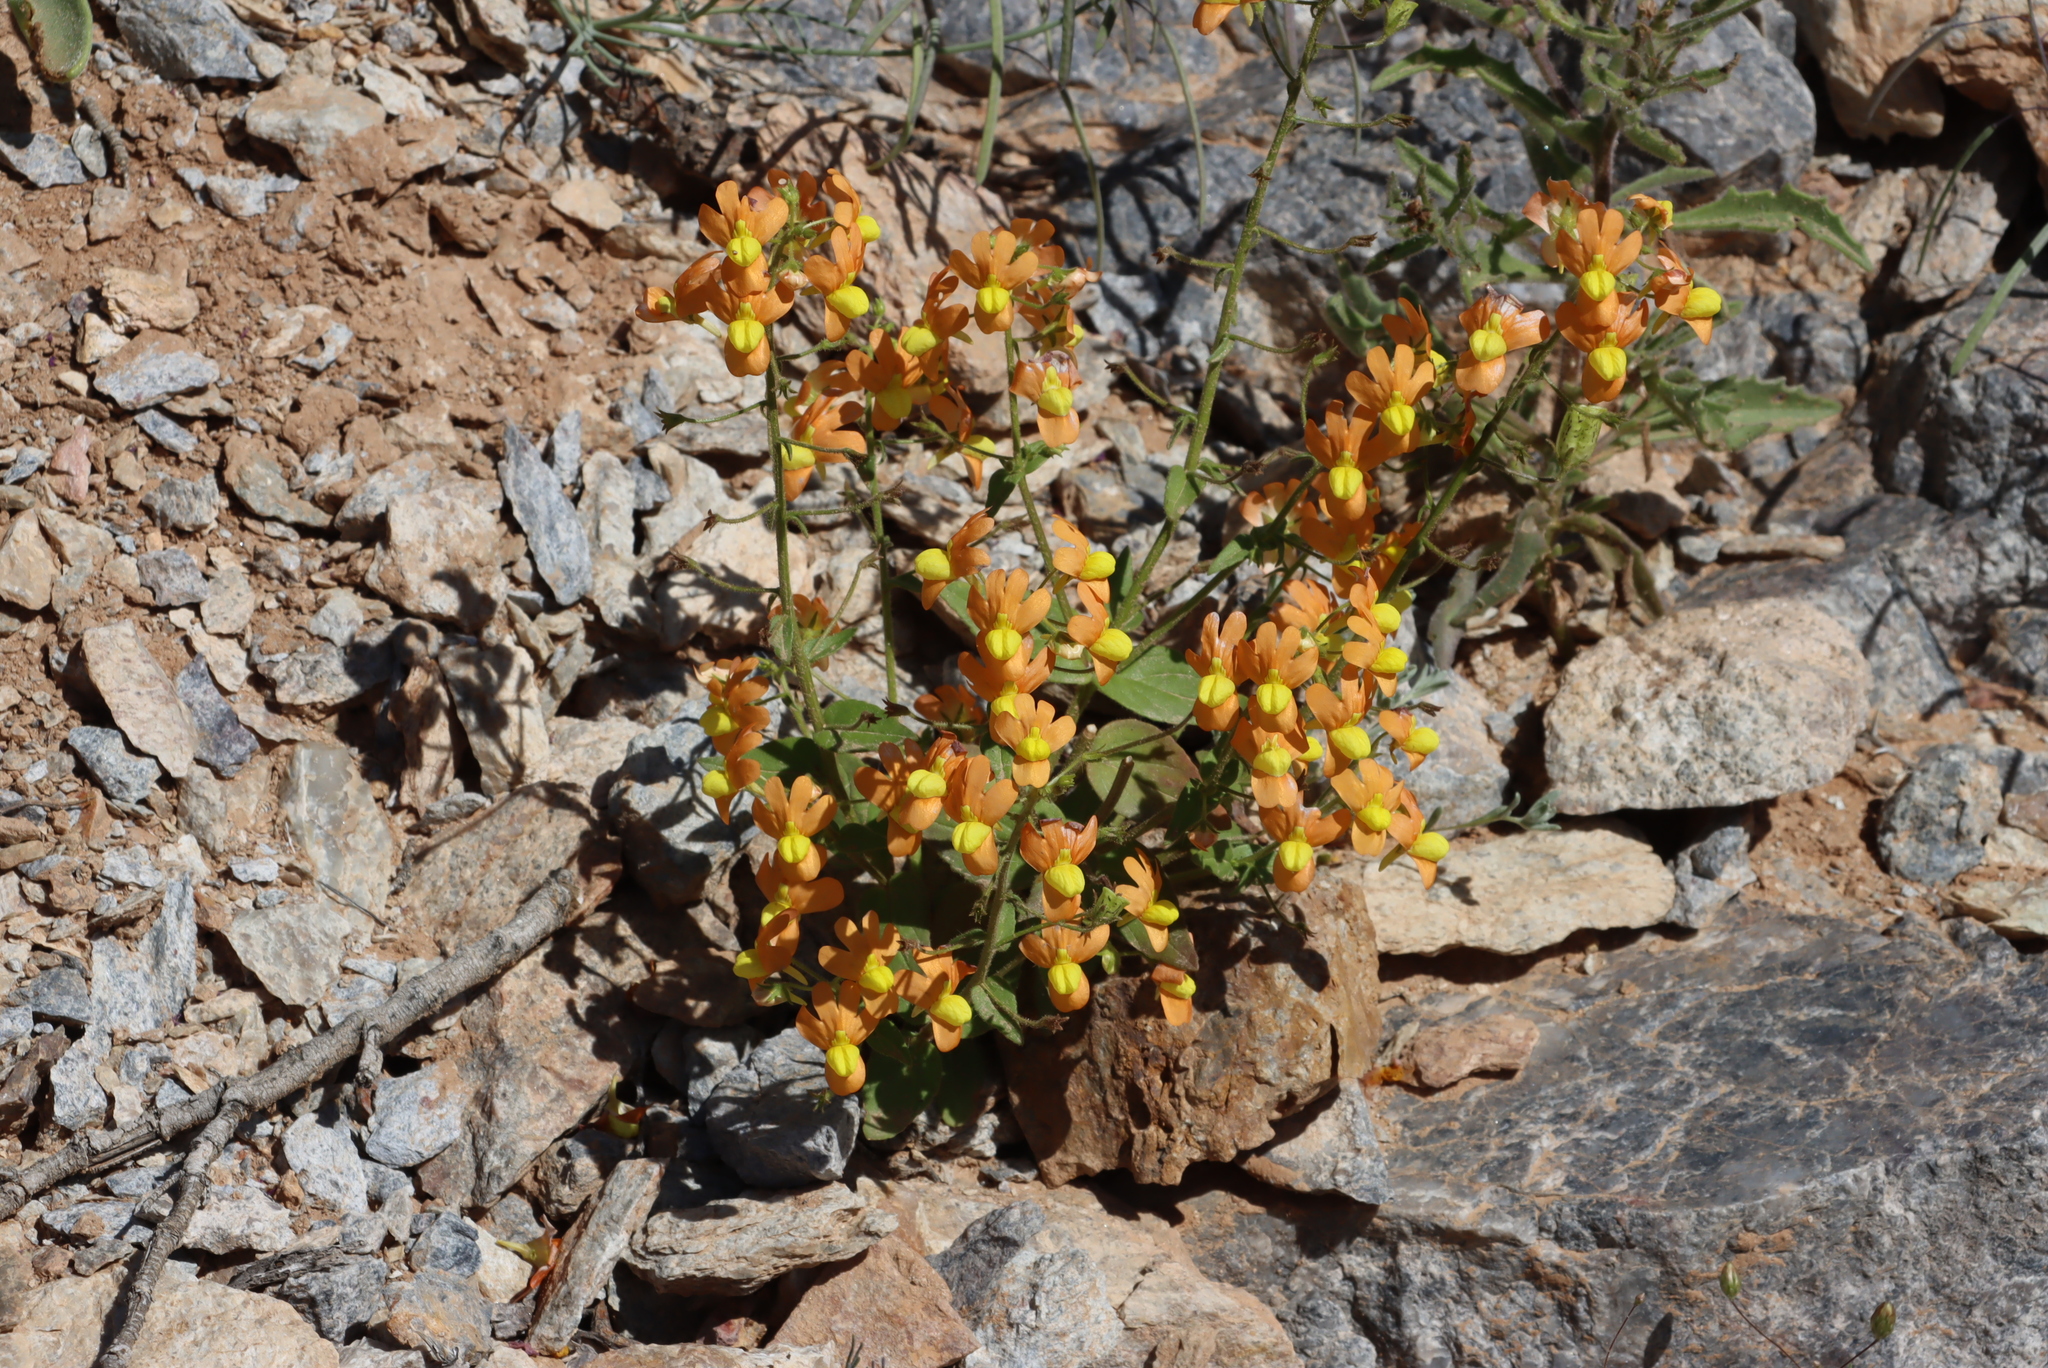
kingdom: Plantae
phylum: Tracheophyta
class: Magnoliopsida
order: Lamiales
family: Scrophulariaceae
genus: Nemesia
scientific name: Nemesia williamsonii
